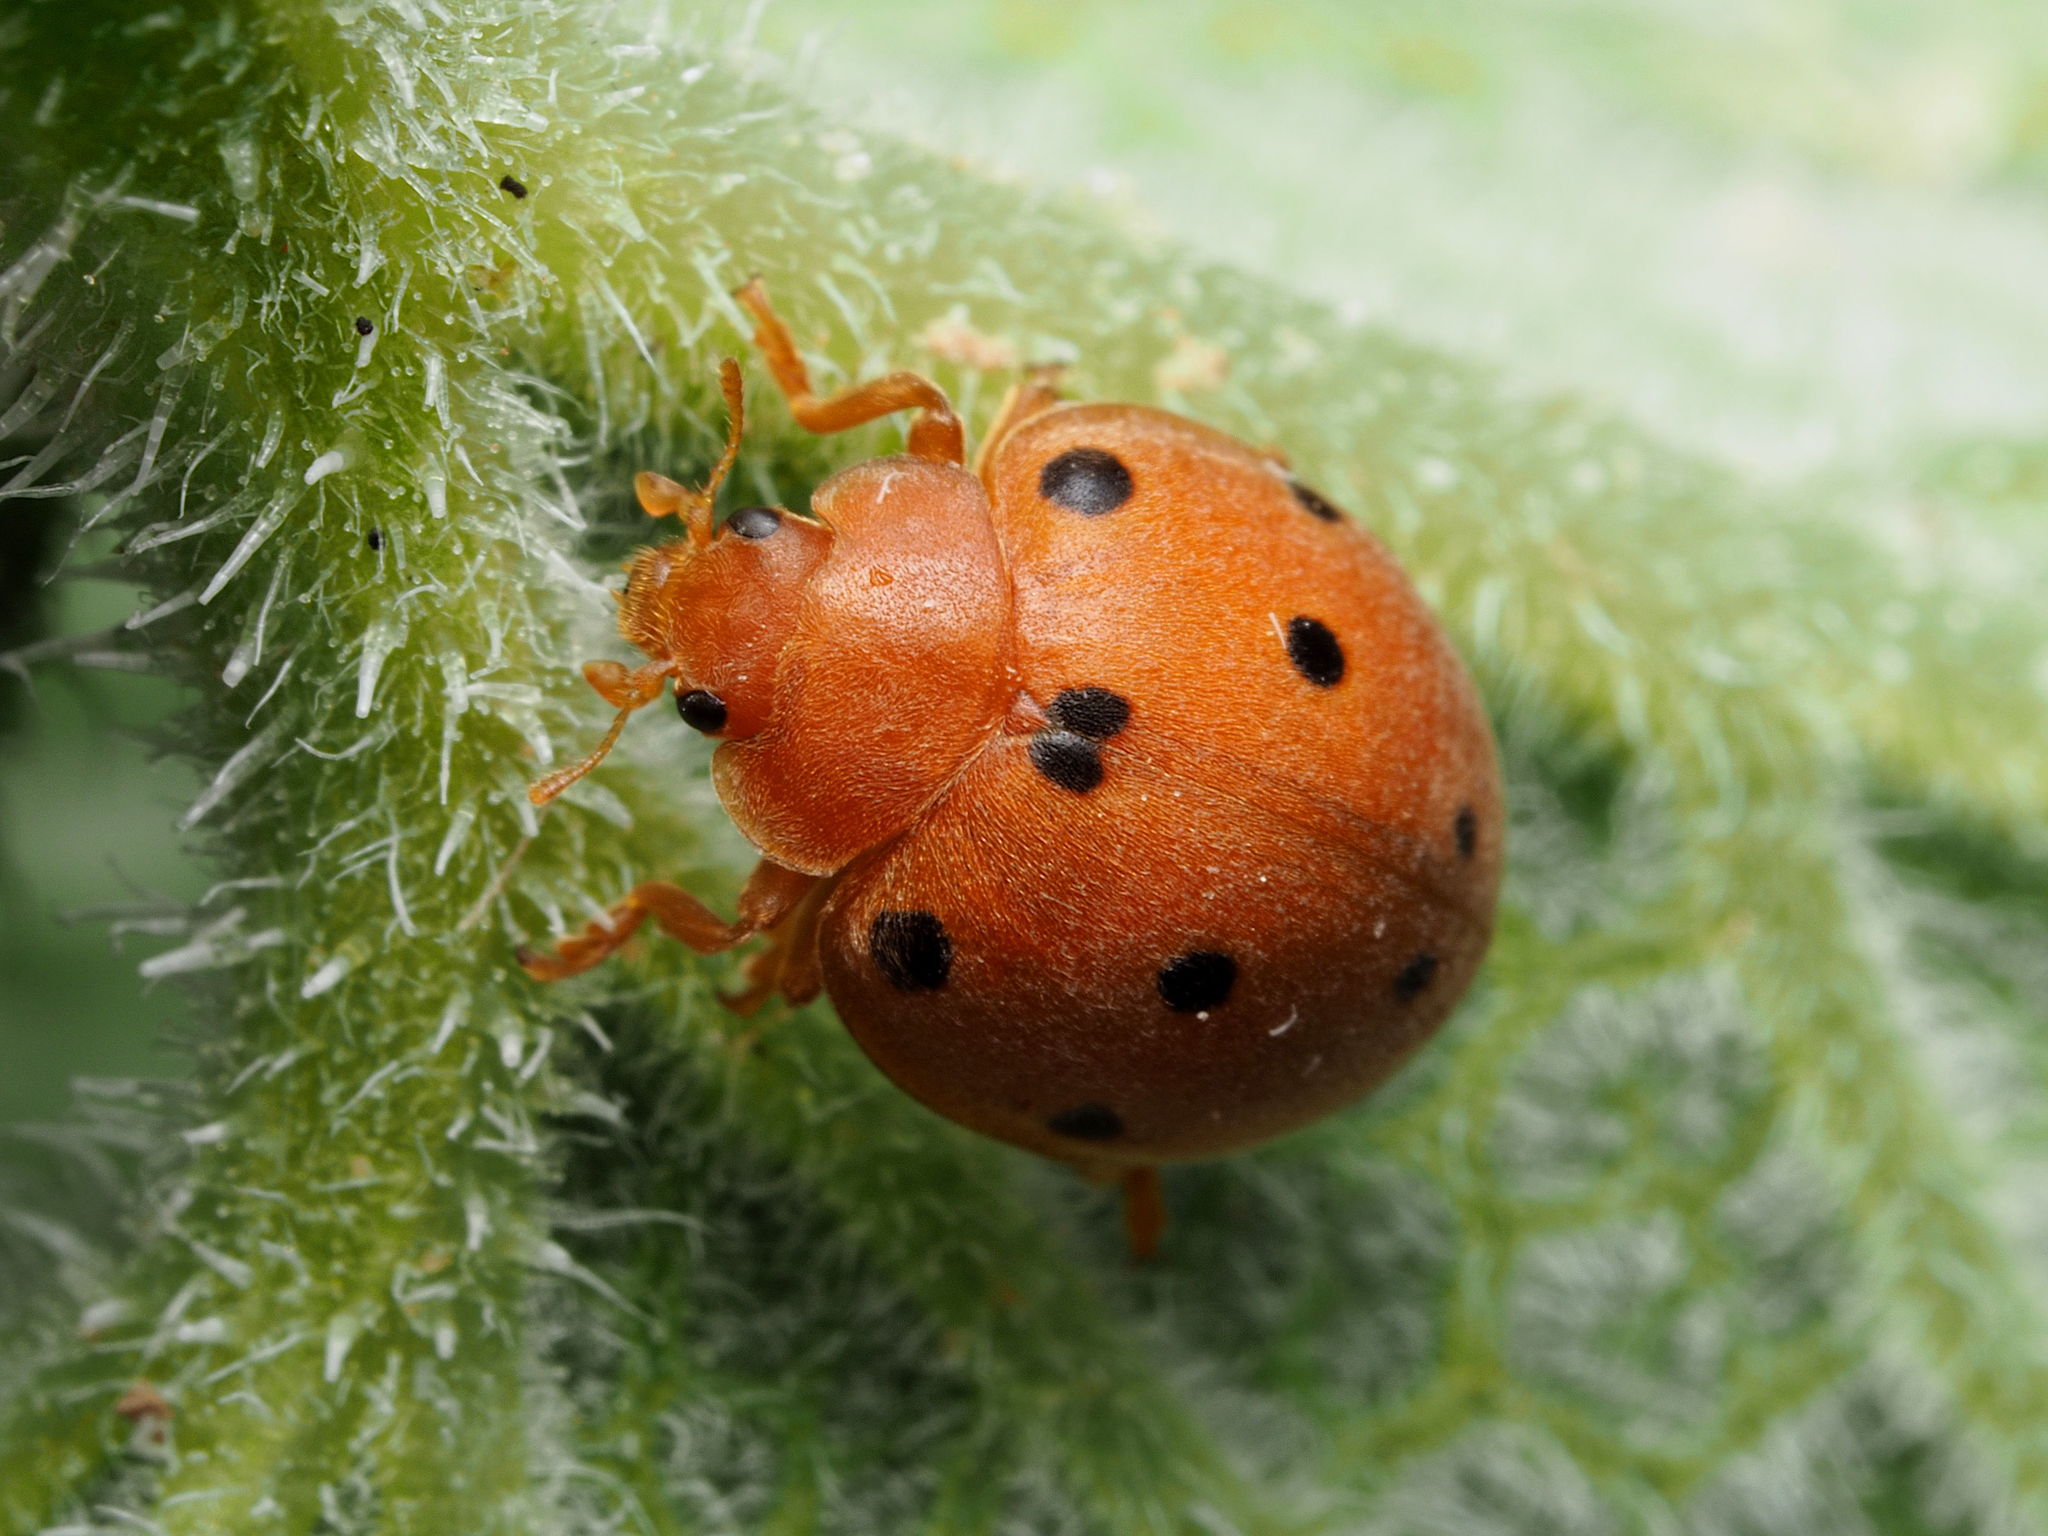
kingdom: Animalia
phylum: Arthropoda
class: Insecta
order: Coleoptera
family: Coccinellidae
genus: Henosepilachna
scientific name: Henosepilachna
